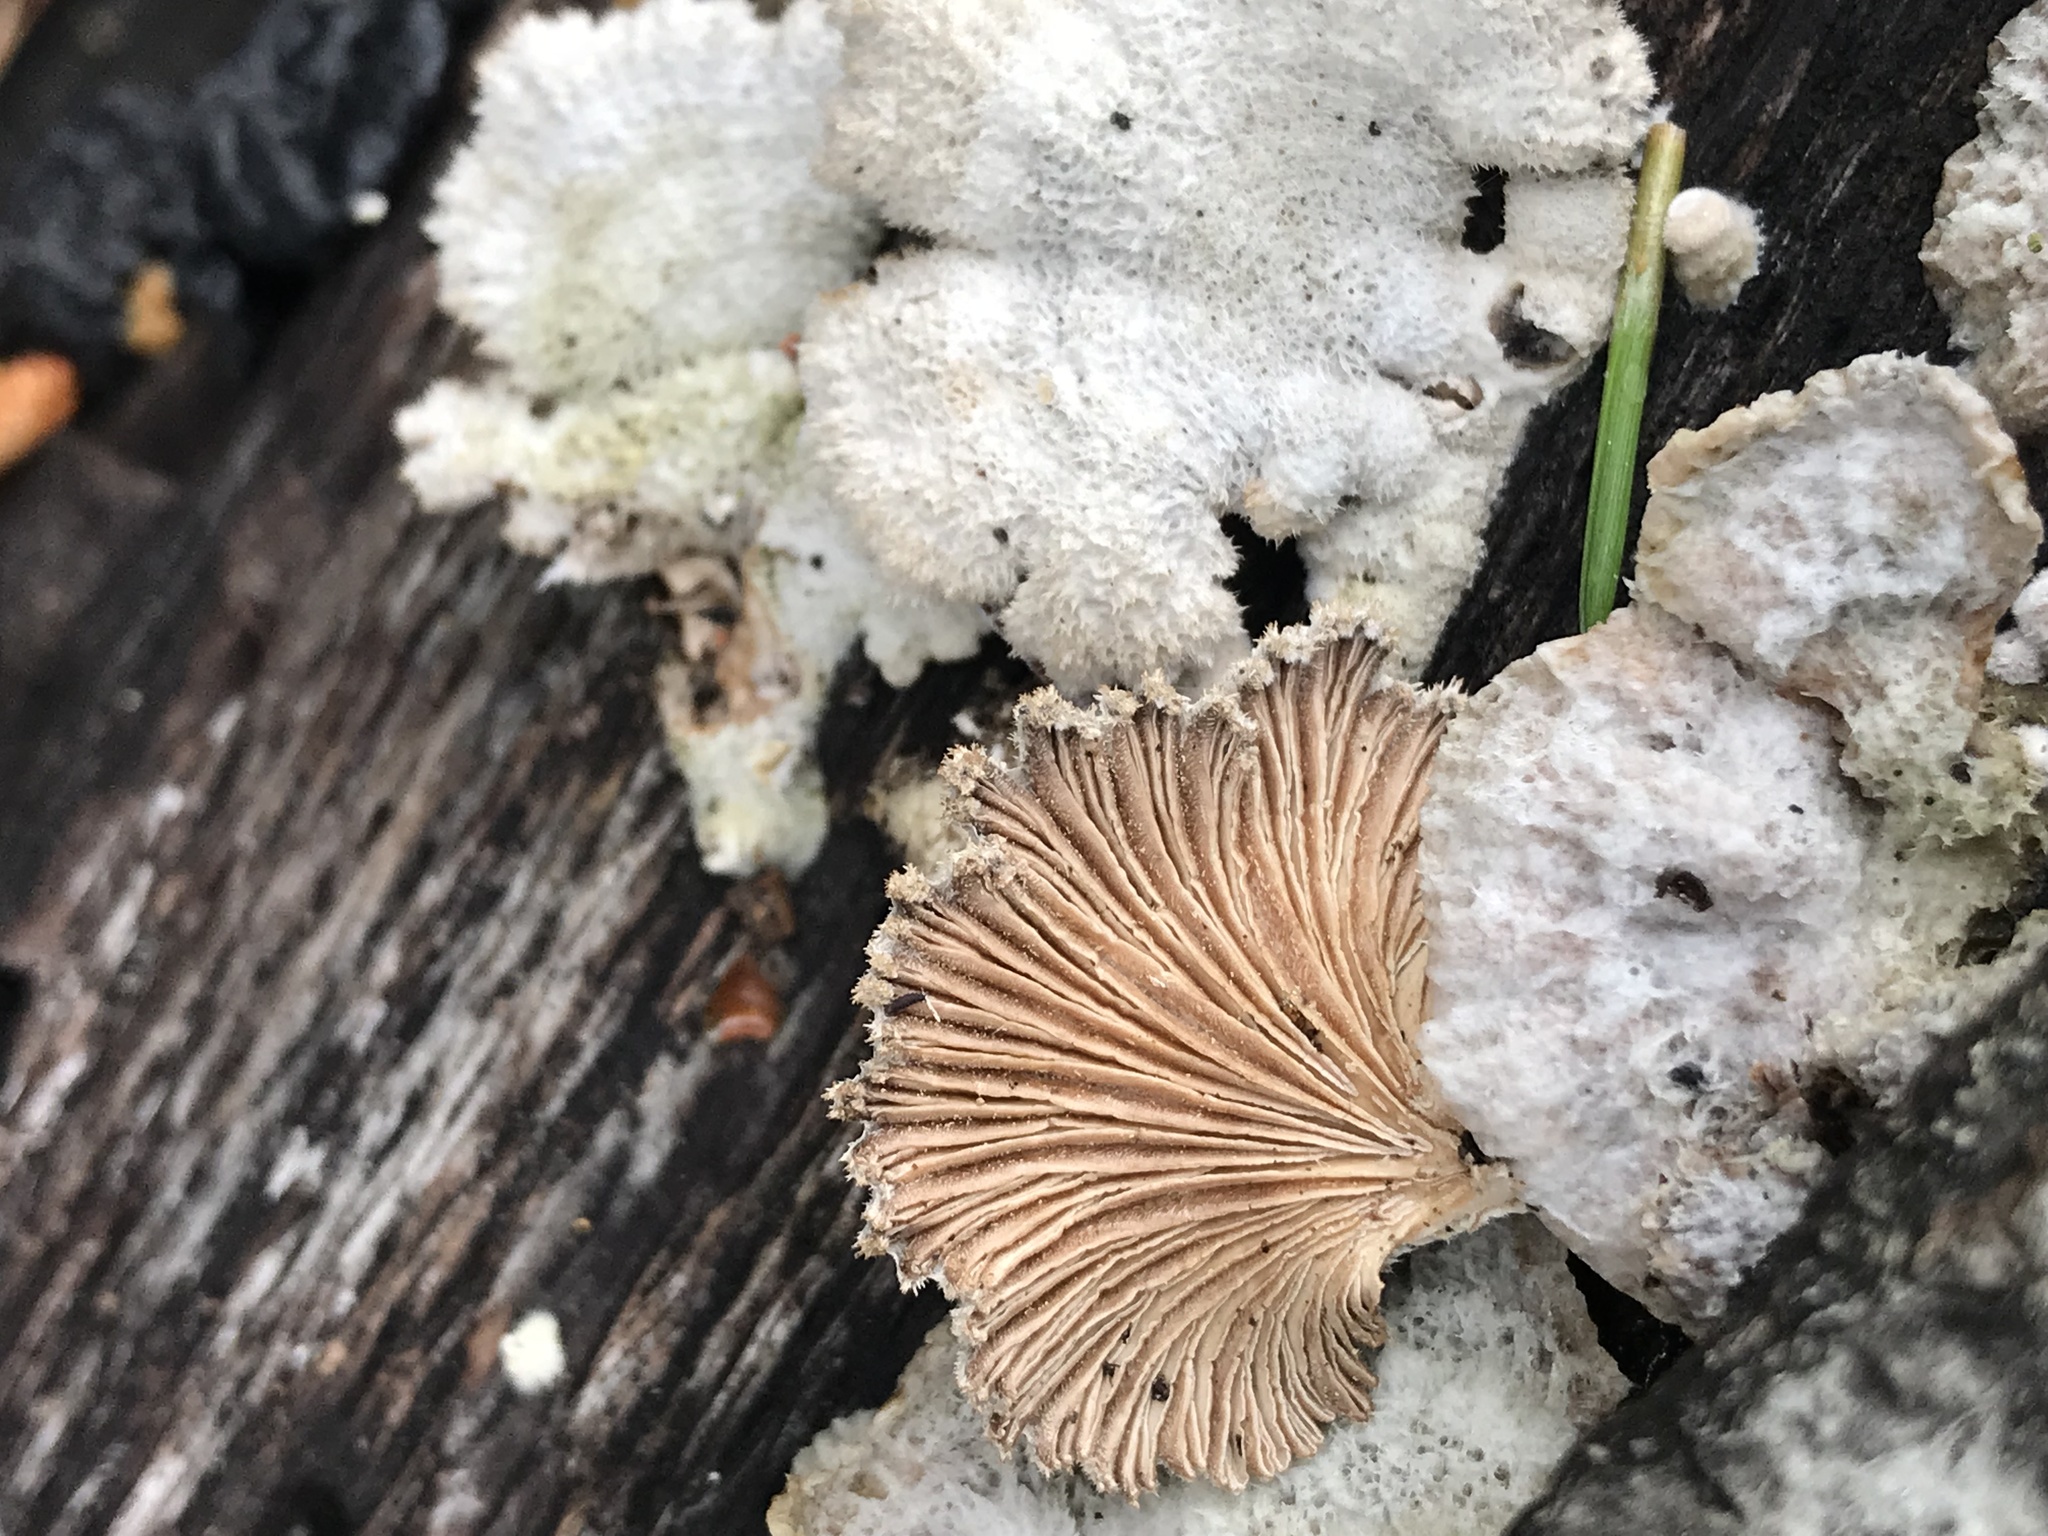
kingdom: Fungi
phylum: Basidiomycota
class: Agaricomycetes
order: Agaricales
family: Schizophyllaceae
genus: Schizophyllum
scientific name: Schizophyllum commune
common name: Common porecrust
